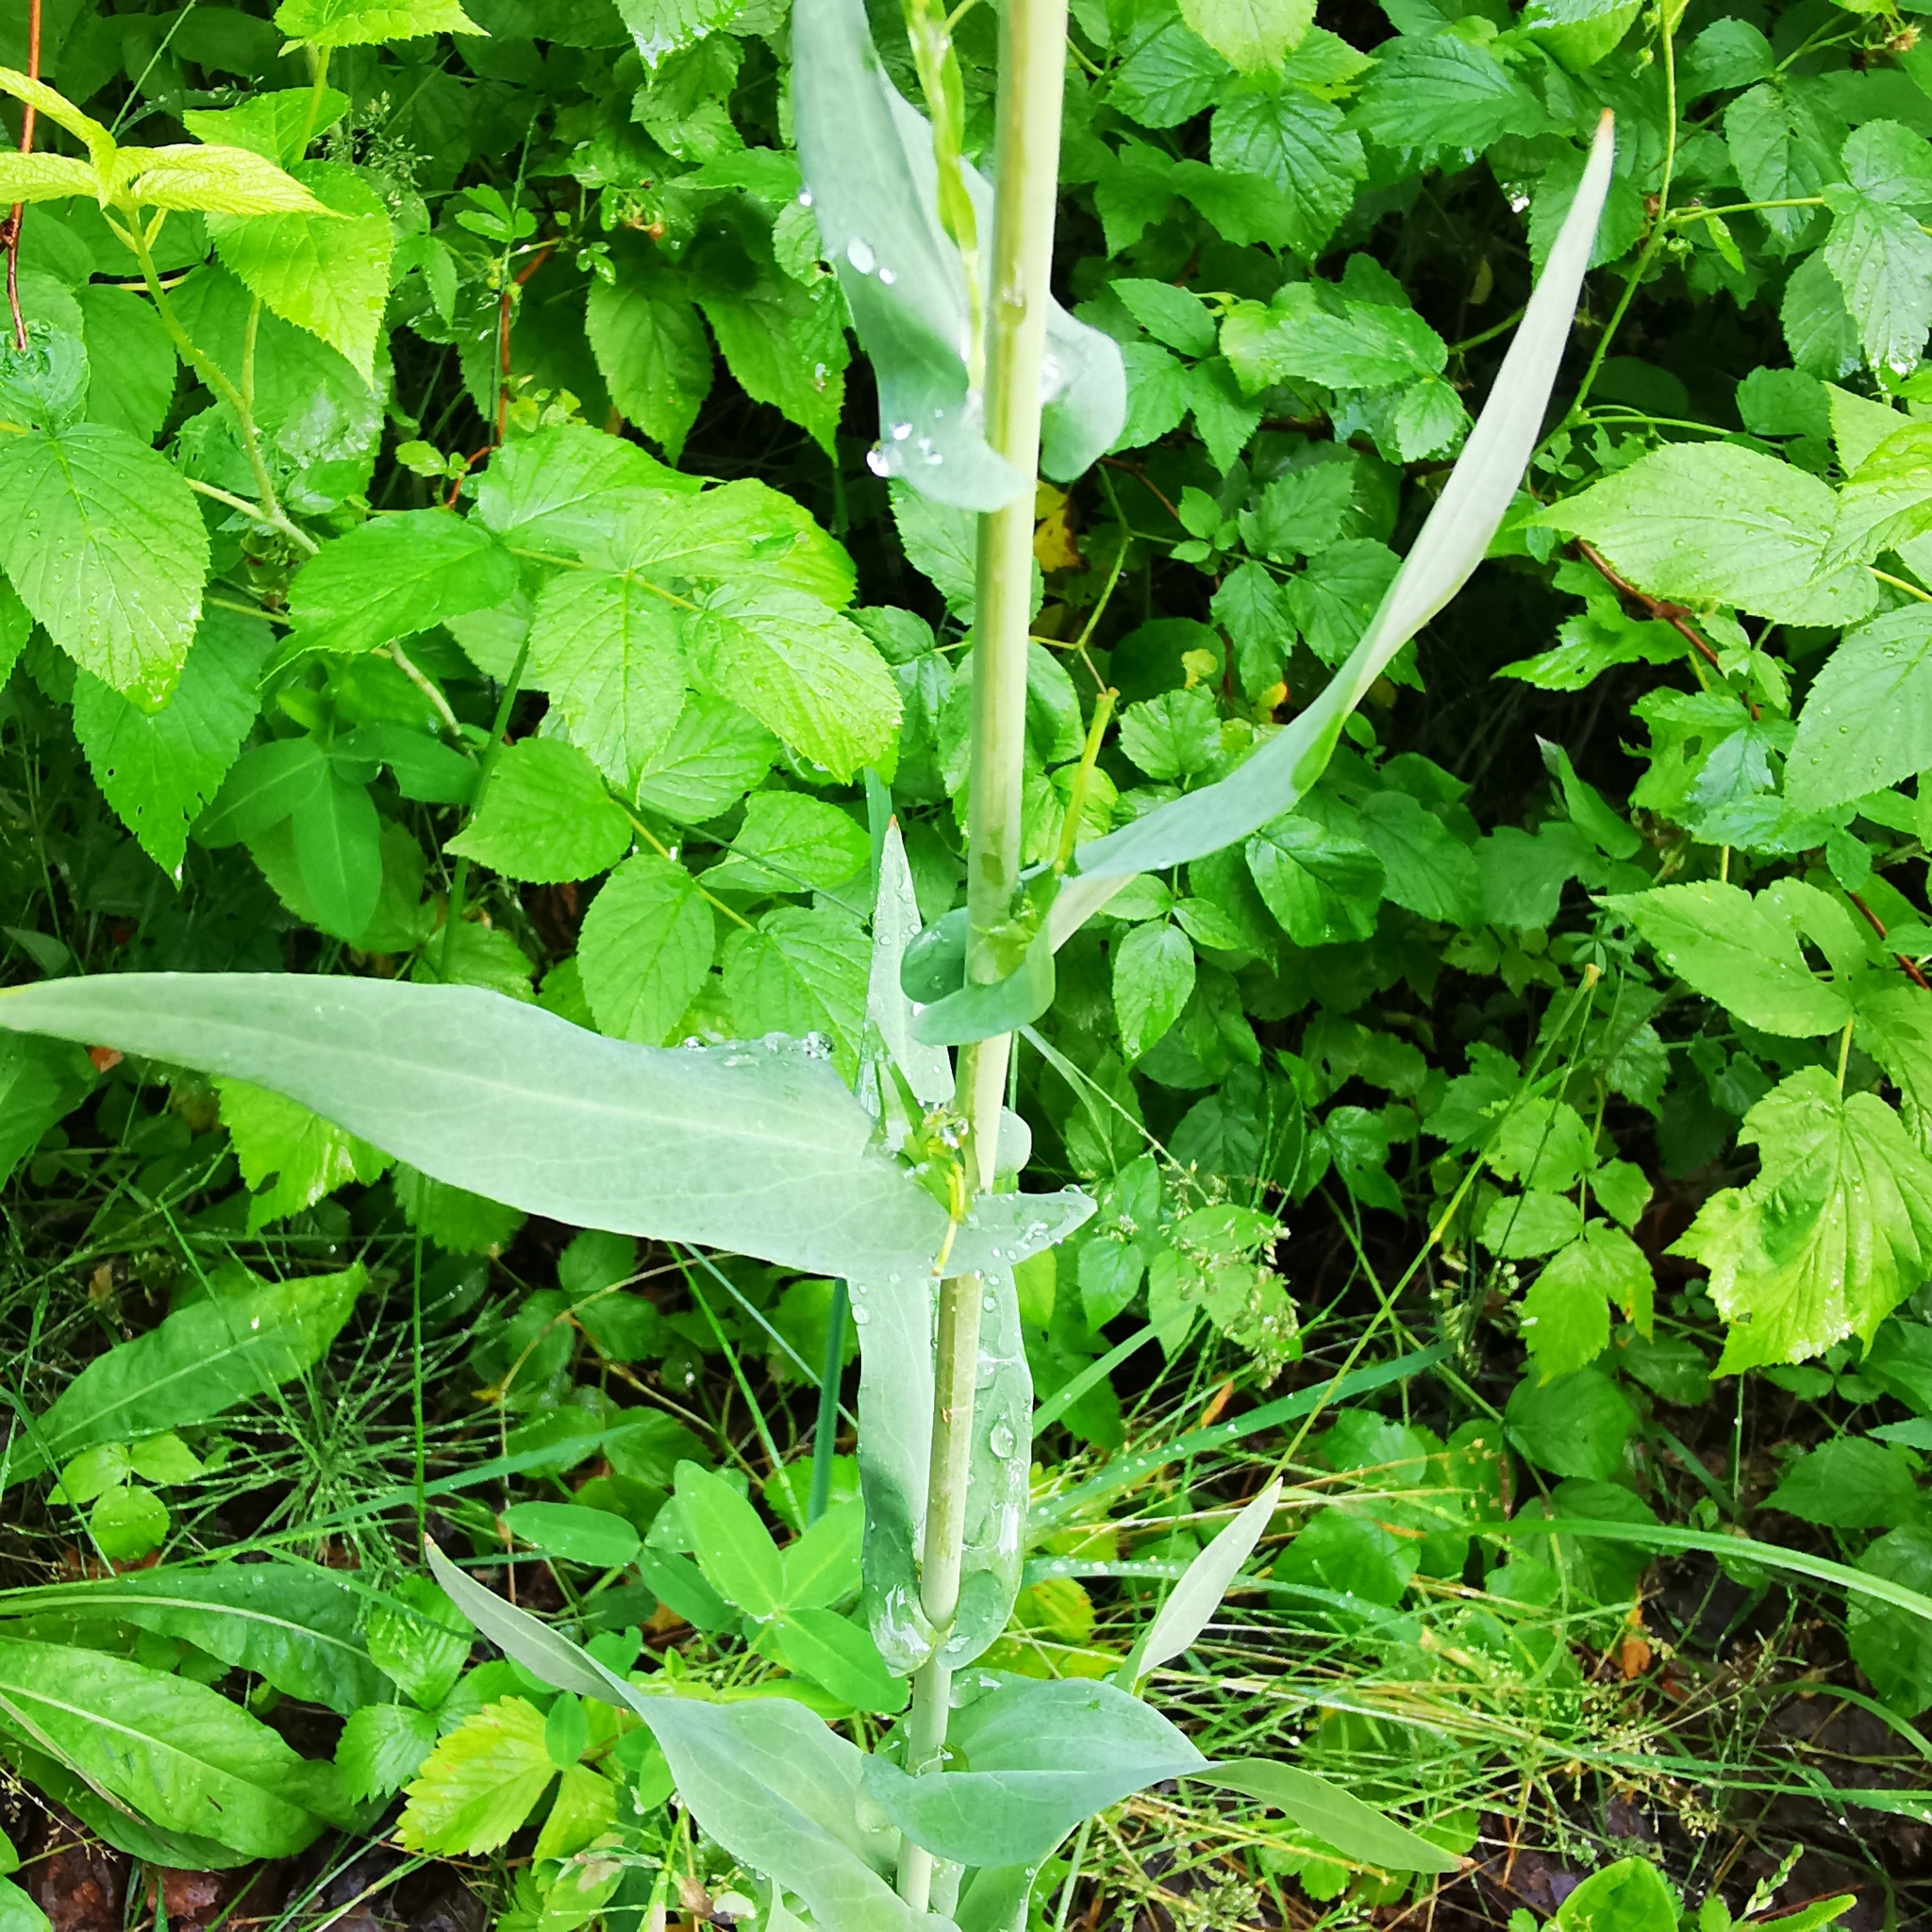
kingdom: Plantae
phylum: Tracheophyta
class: Magnoliopsida
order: Brassicales
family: Brassicaceae
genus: Turritis
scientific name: Turritis glabra
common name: Tower rockcress
